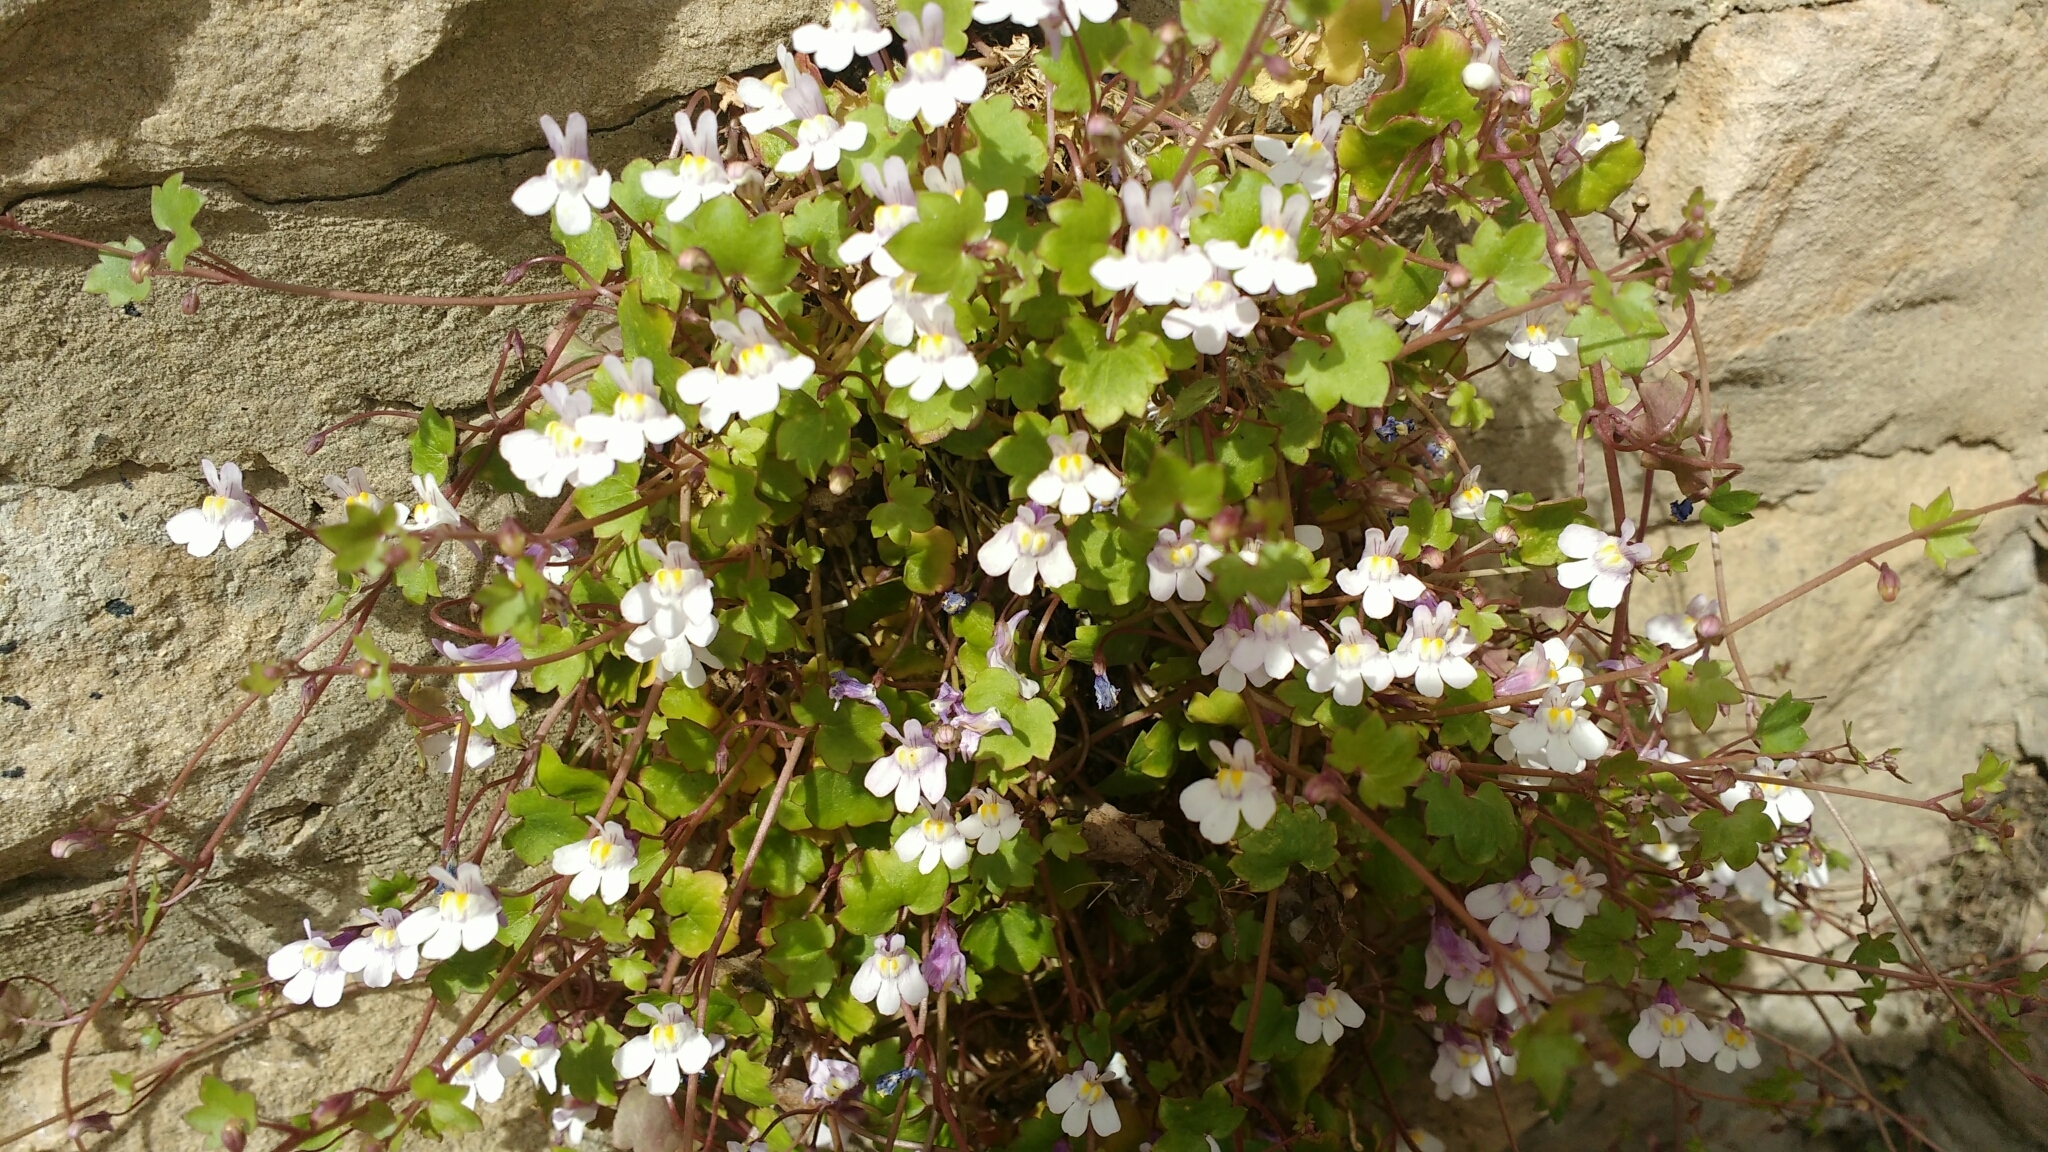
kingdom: Plantae
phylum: Tracheophyta
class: Magnoliopsida
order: Lamiales
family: Plantaginaceae
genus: Cymbalaria
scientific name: Cymbalaria muralis
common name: Ivy-leaved toadflax
